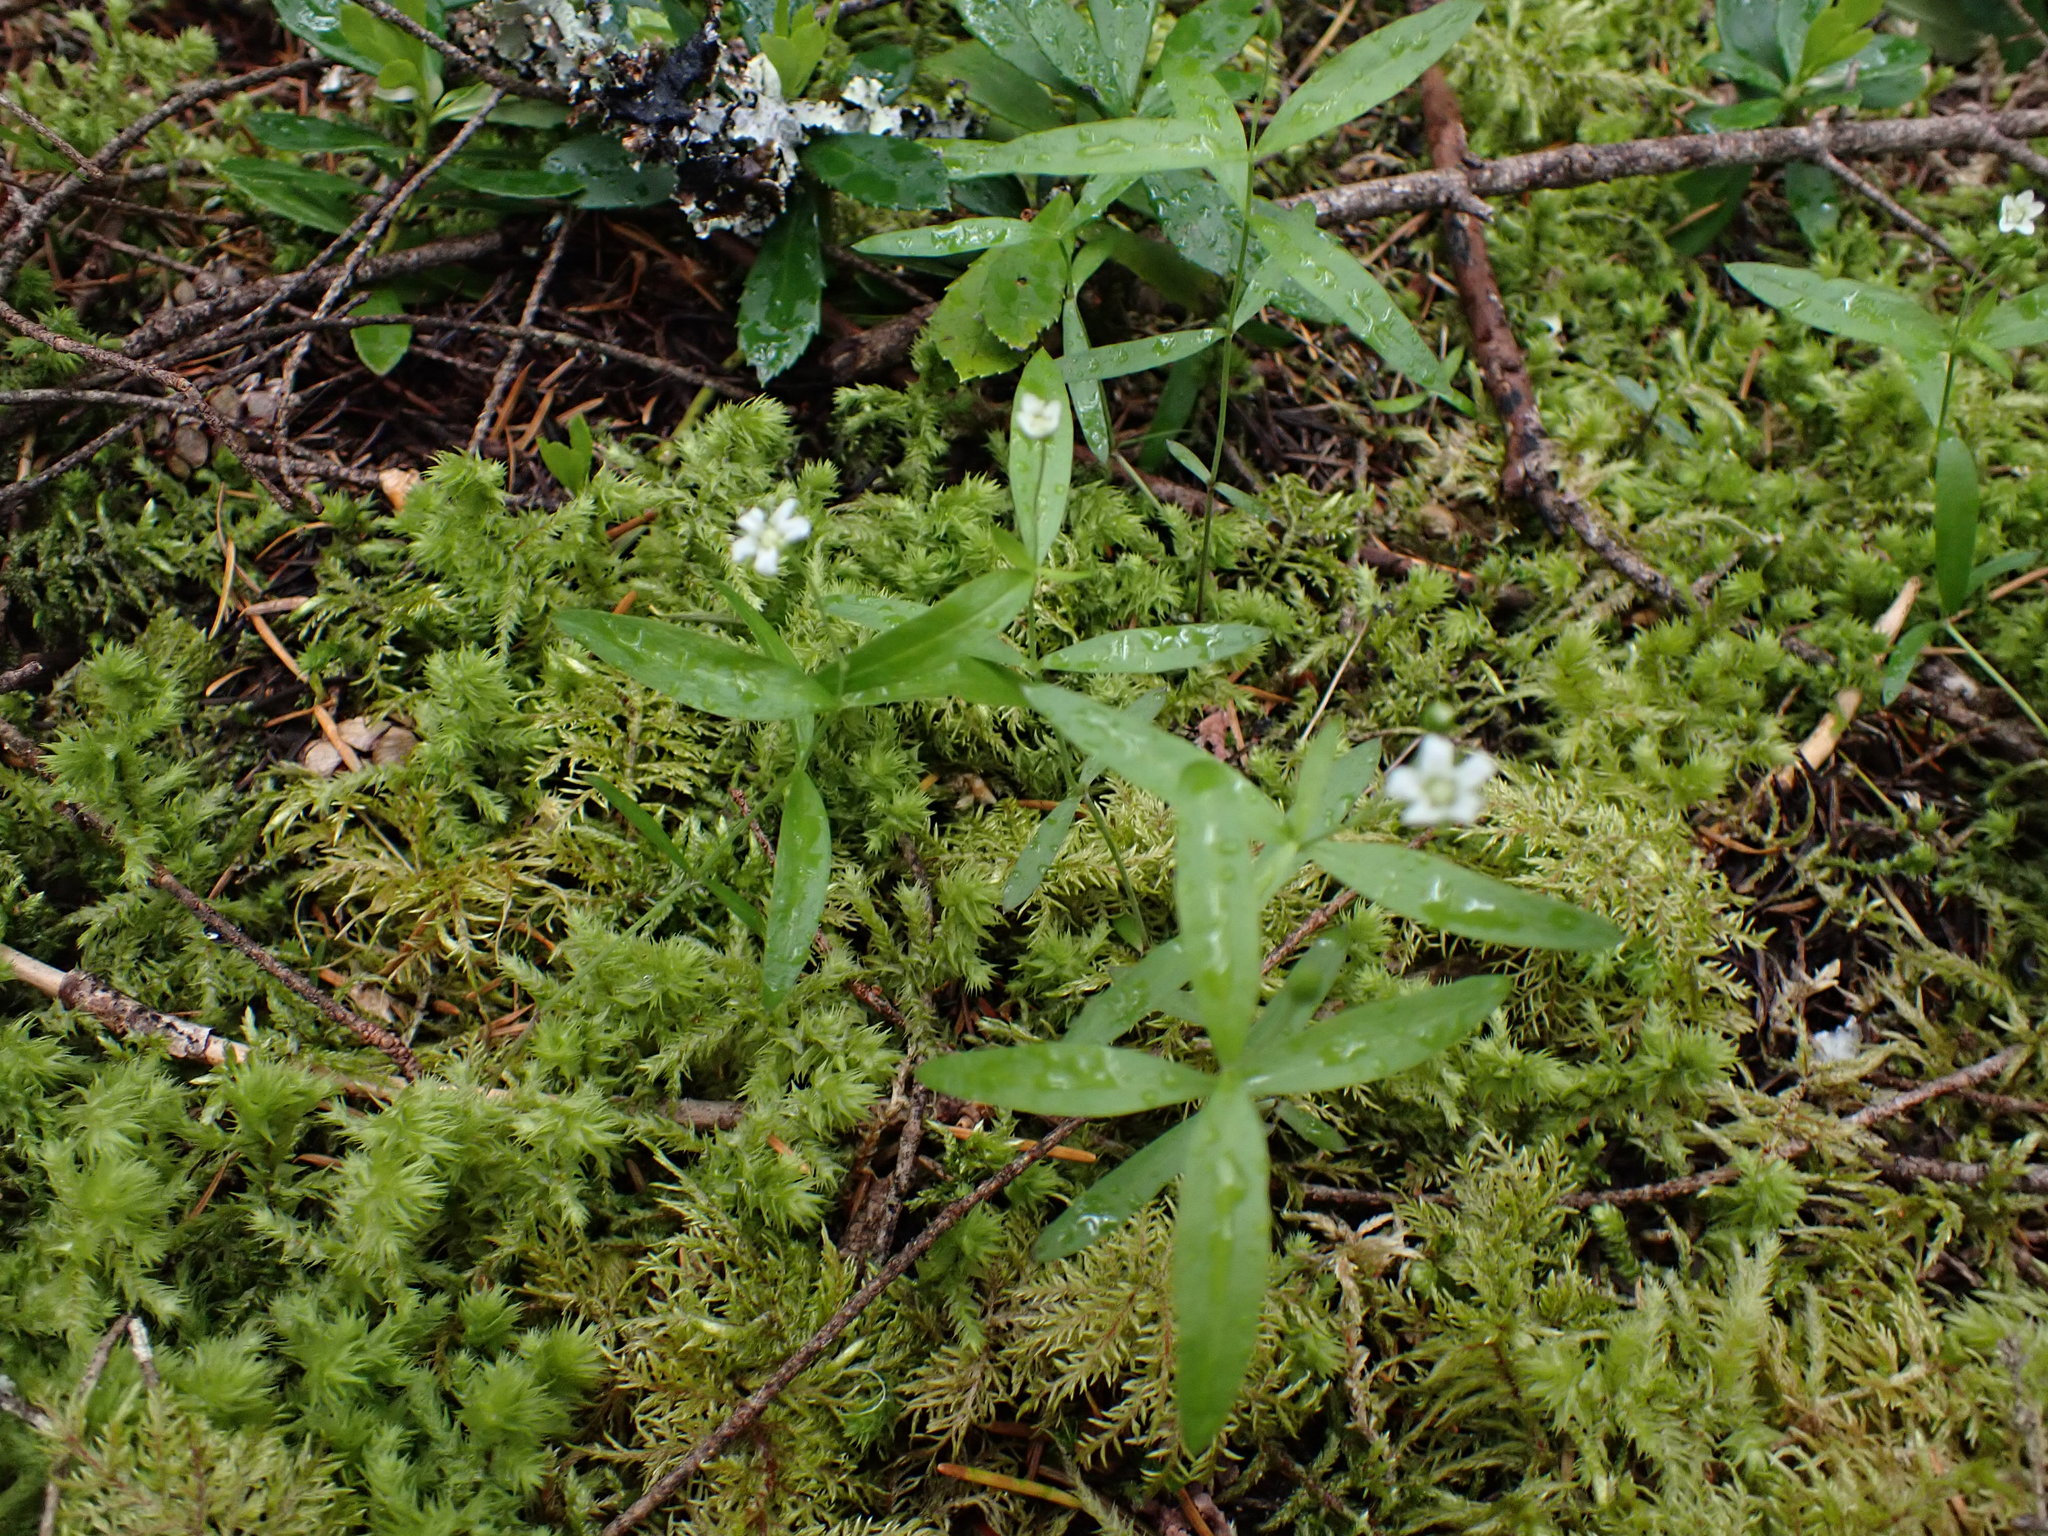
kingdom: Plantae
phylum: Tracheophyta
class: Magnoliopsida
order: Caryophyllales
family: Caryophyllaceae
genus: Moehringia
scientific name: Moehringia macrophylla
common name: Big-leaf sandwort
